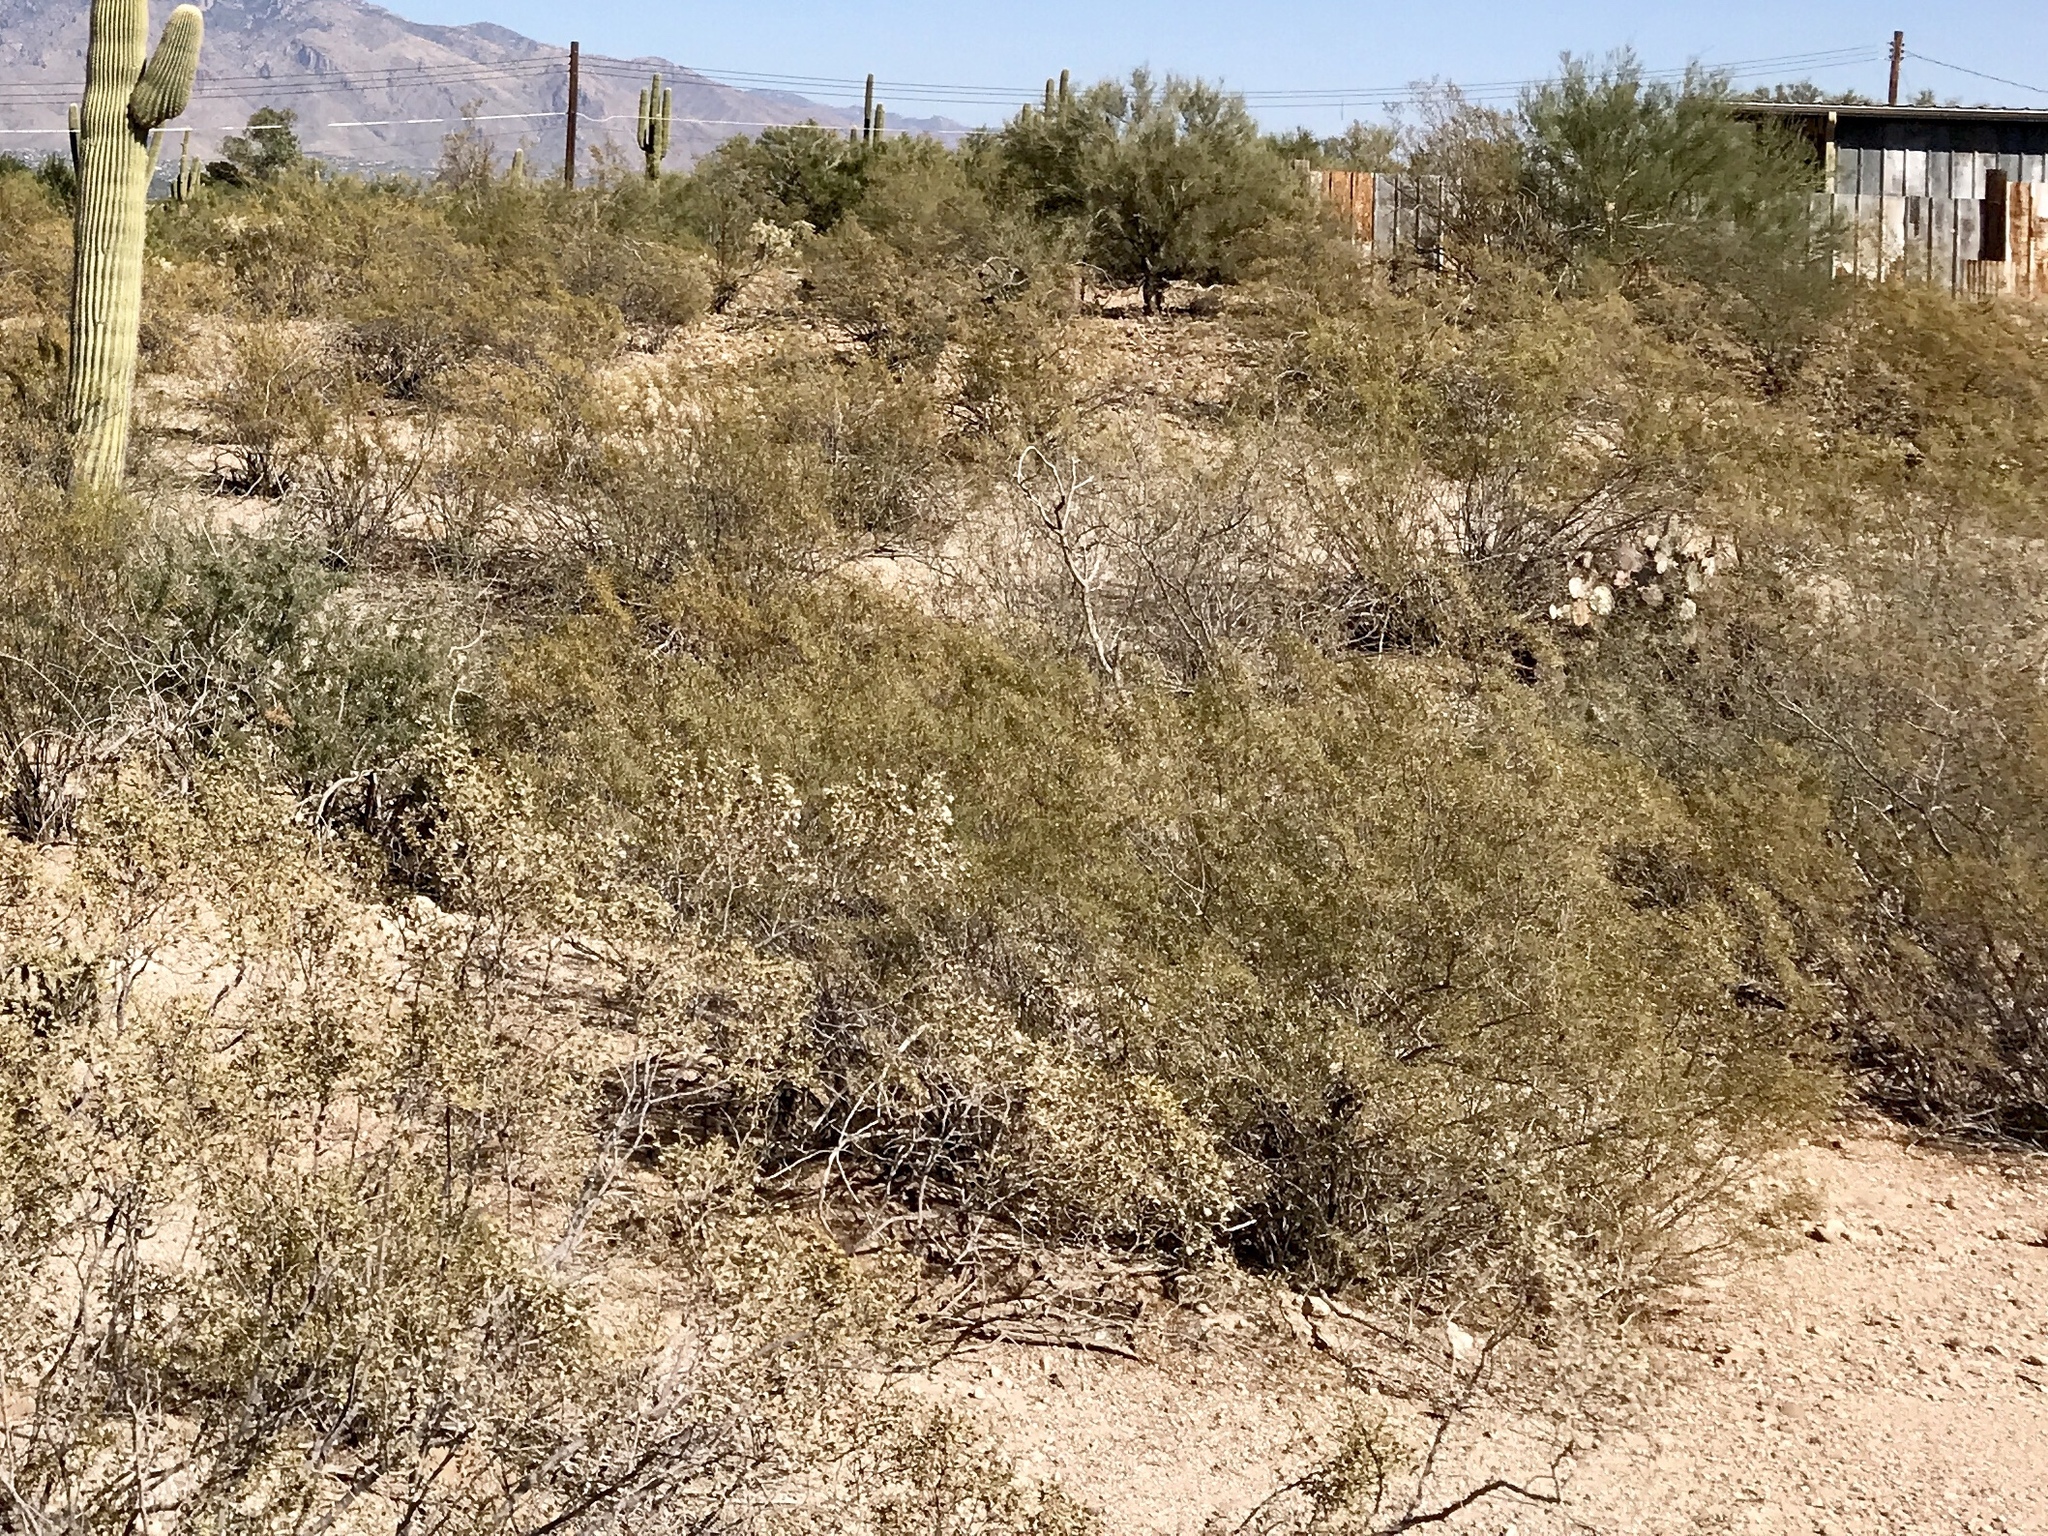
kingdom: Plantae
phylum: Tracheophyta
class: Magnoliopsida
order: Zygophyllales
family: Zygophyllaceae
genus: Larrea
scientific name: Larrea tridentata
